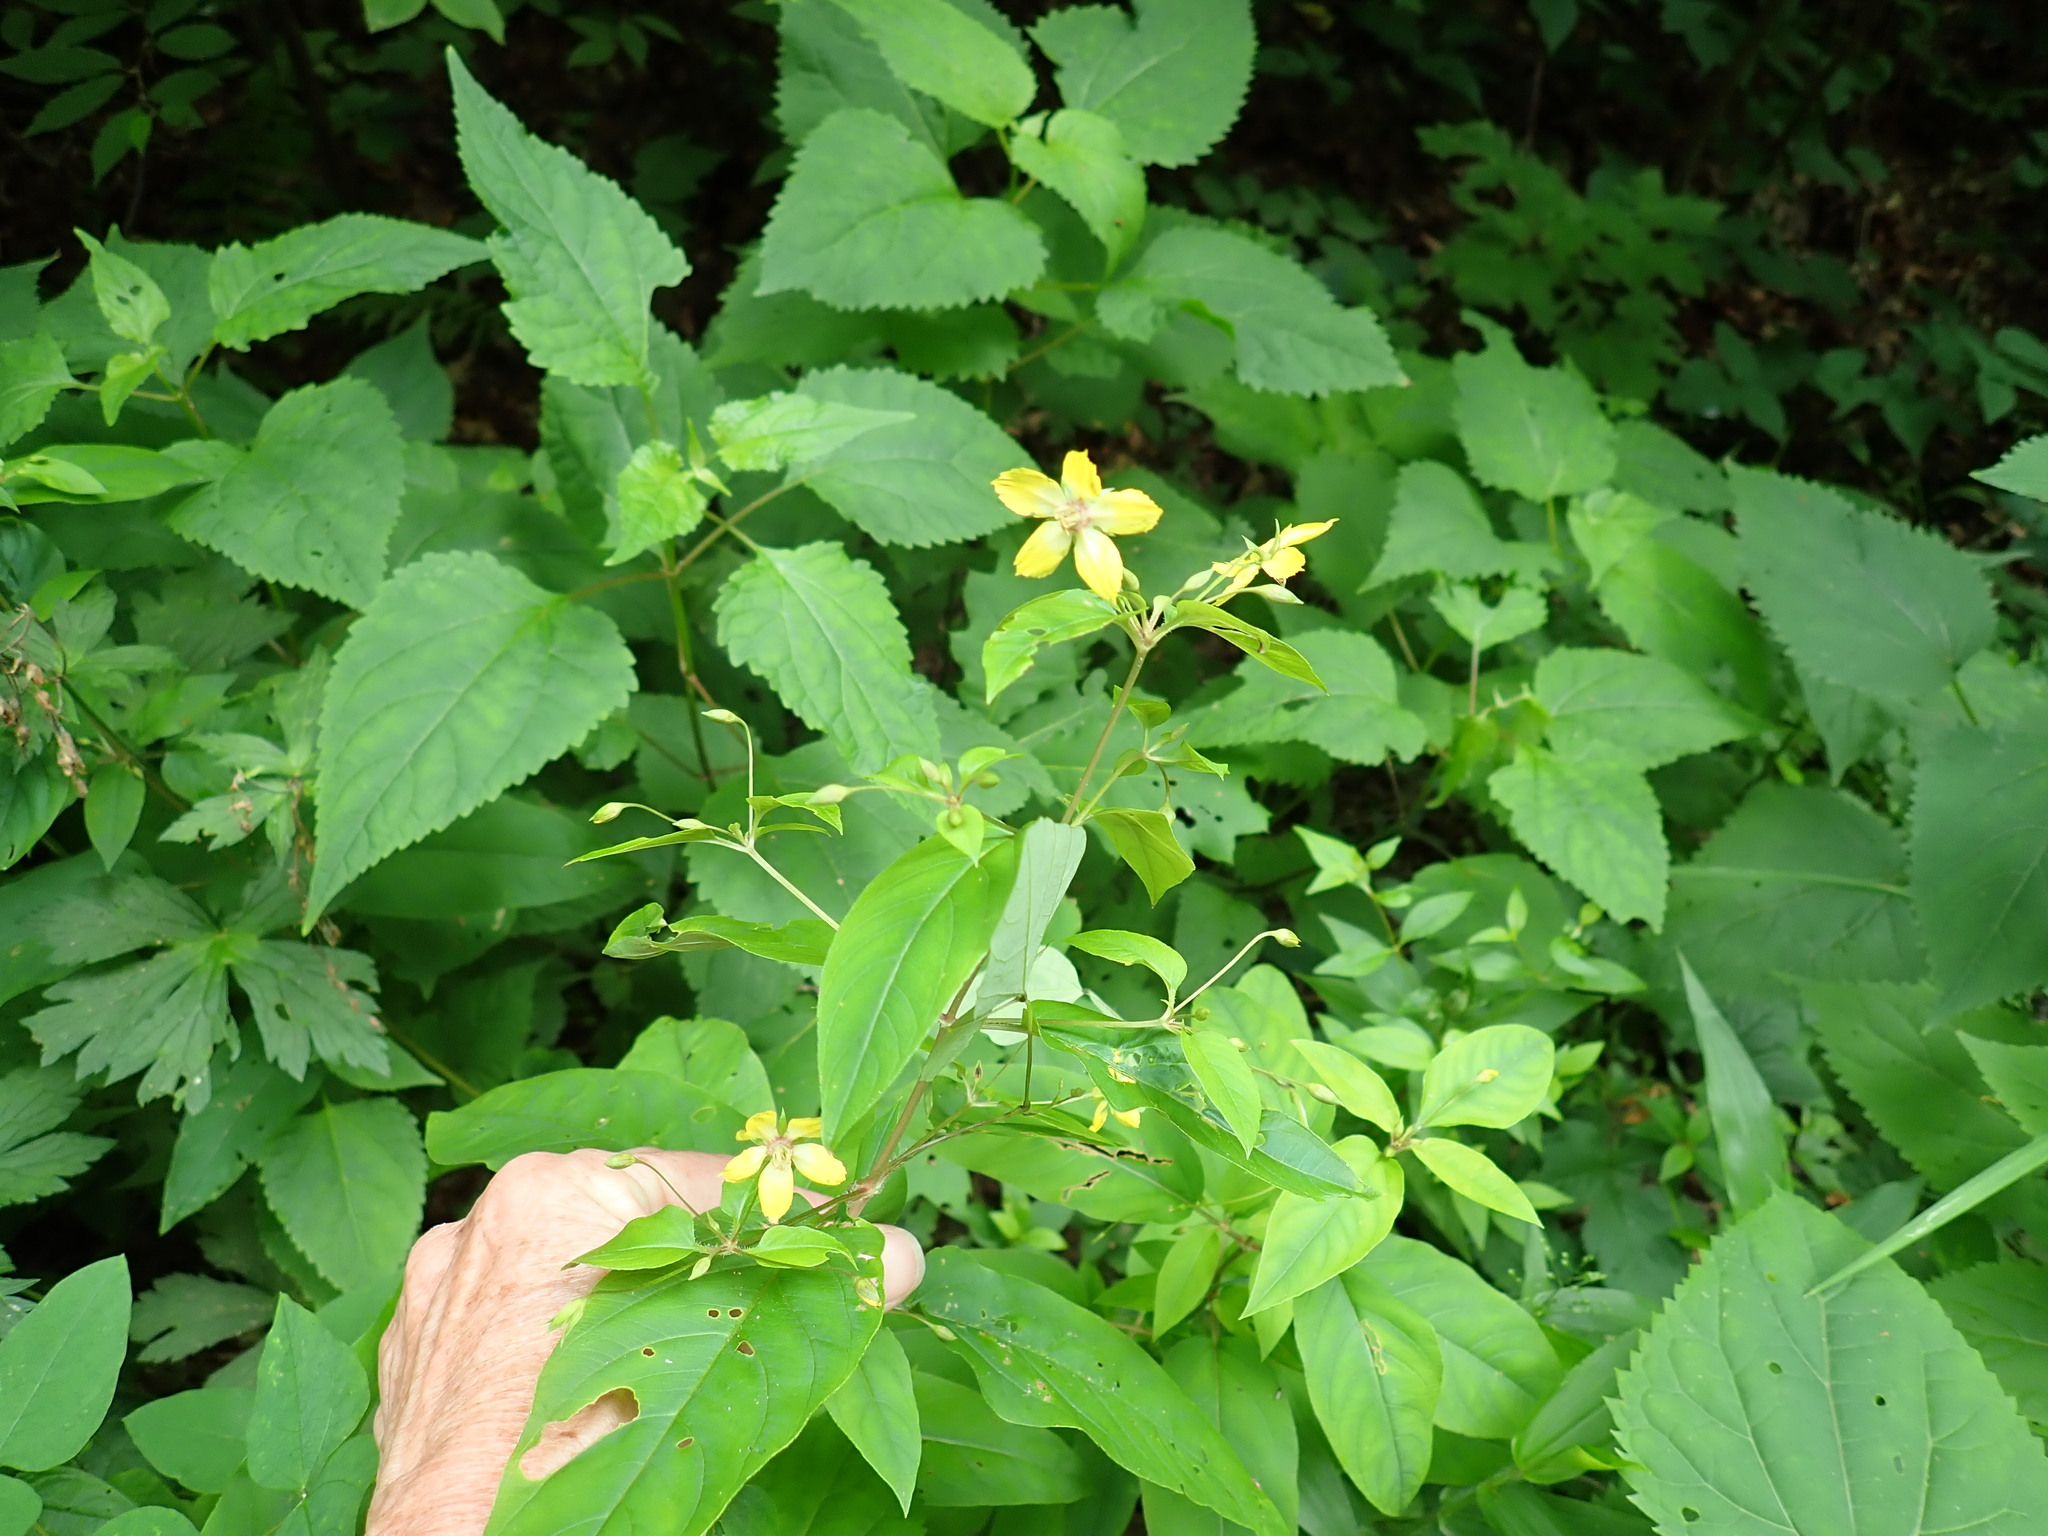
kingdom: Plantae
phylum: Tracheophyta
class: Magnoliopsida
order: Ericales
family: Primulaceae
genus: Lysimachia
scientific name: Lysimachia ciliata
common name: Fringed loosestrife
